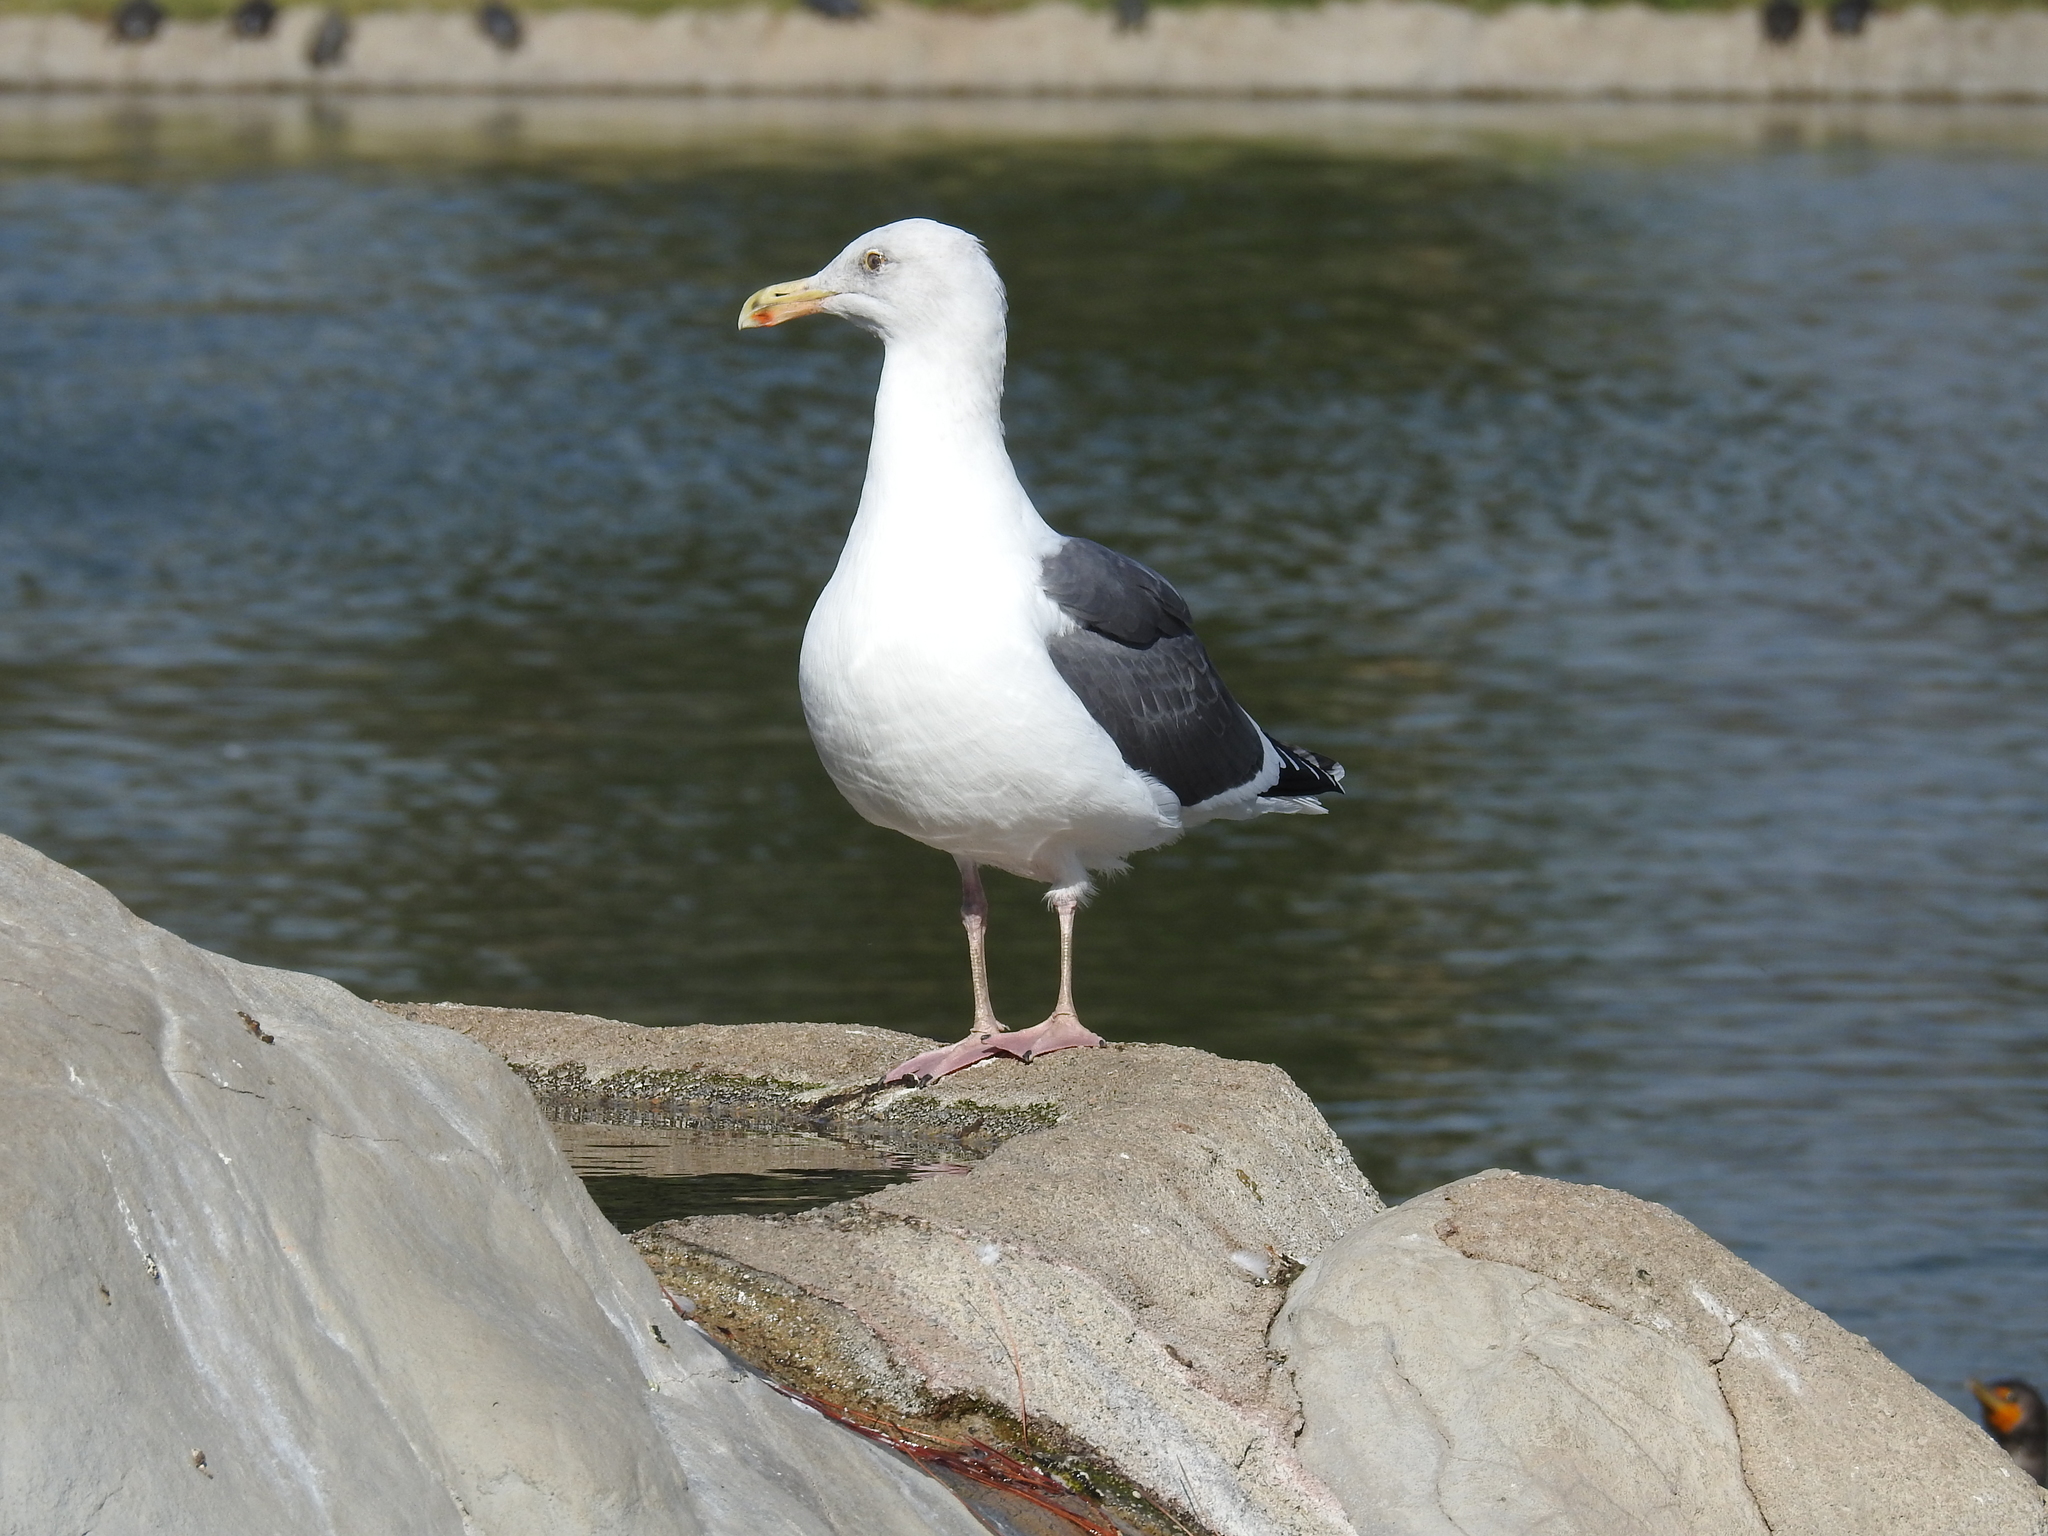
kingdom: Animalia
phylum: Chordata
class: Aves
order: Charadriiformes
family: Laridae
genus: Larus
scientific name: Larus occidentalis
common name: Western gull
